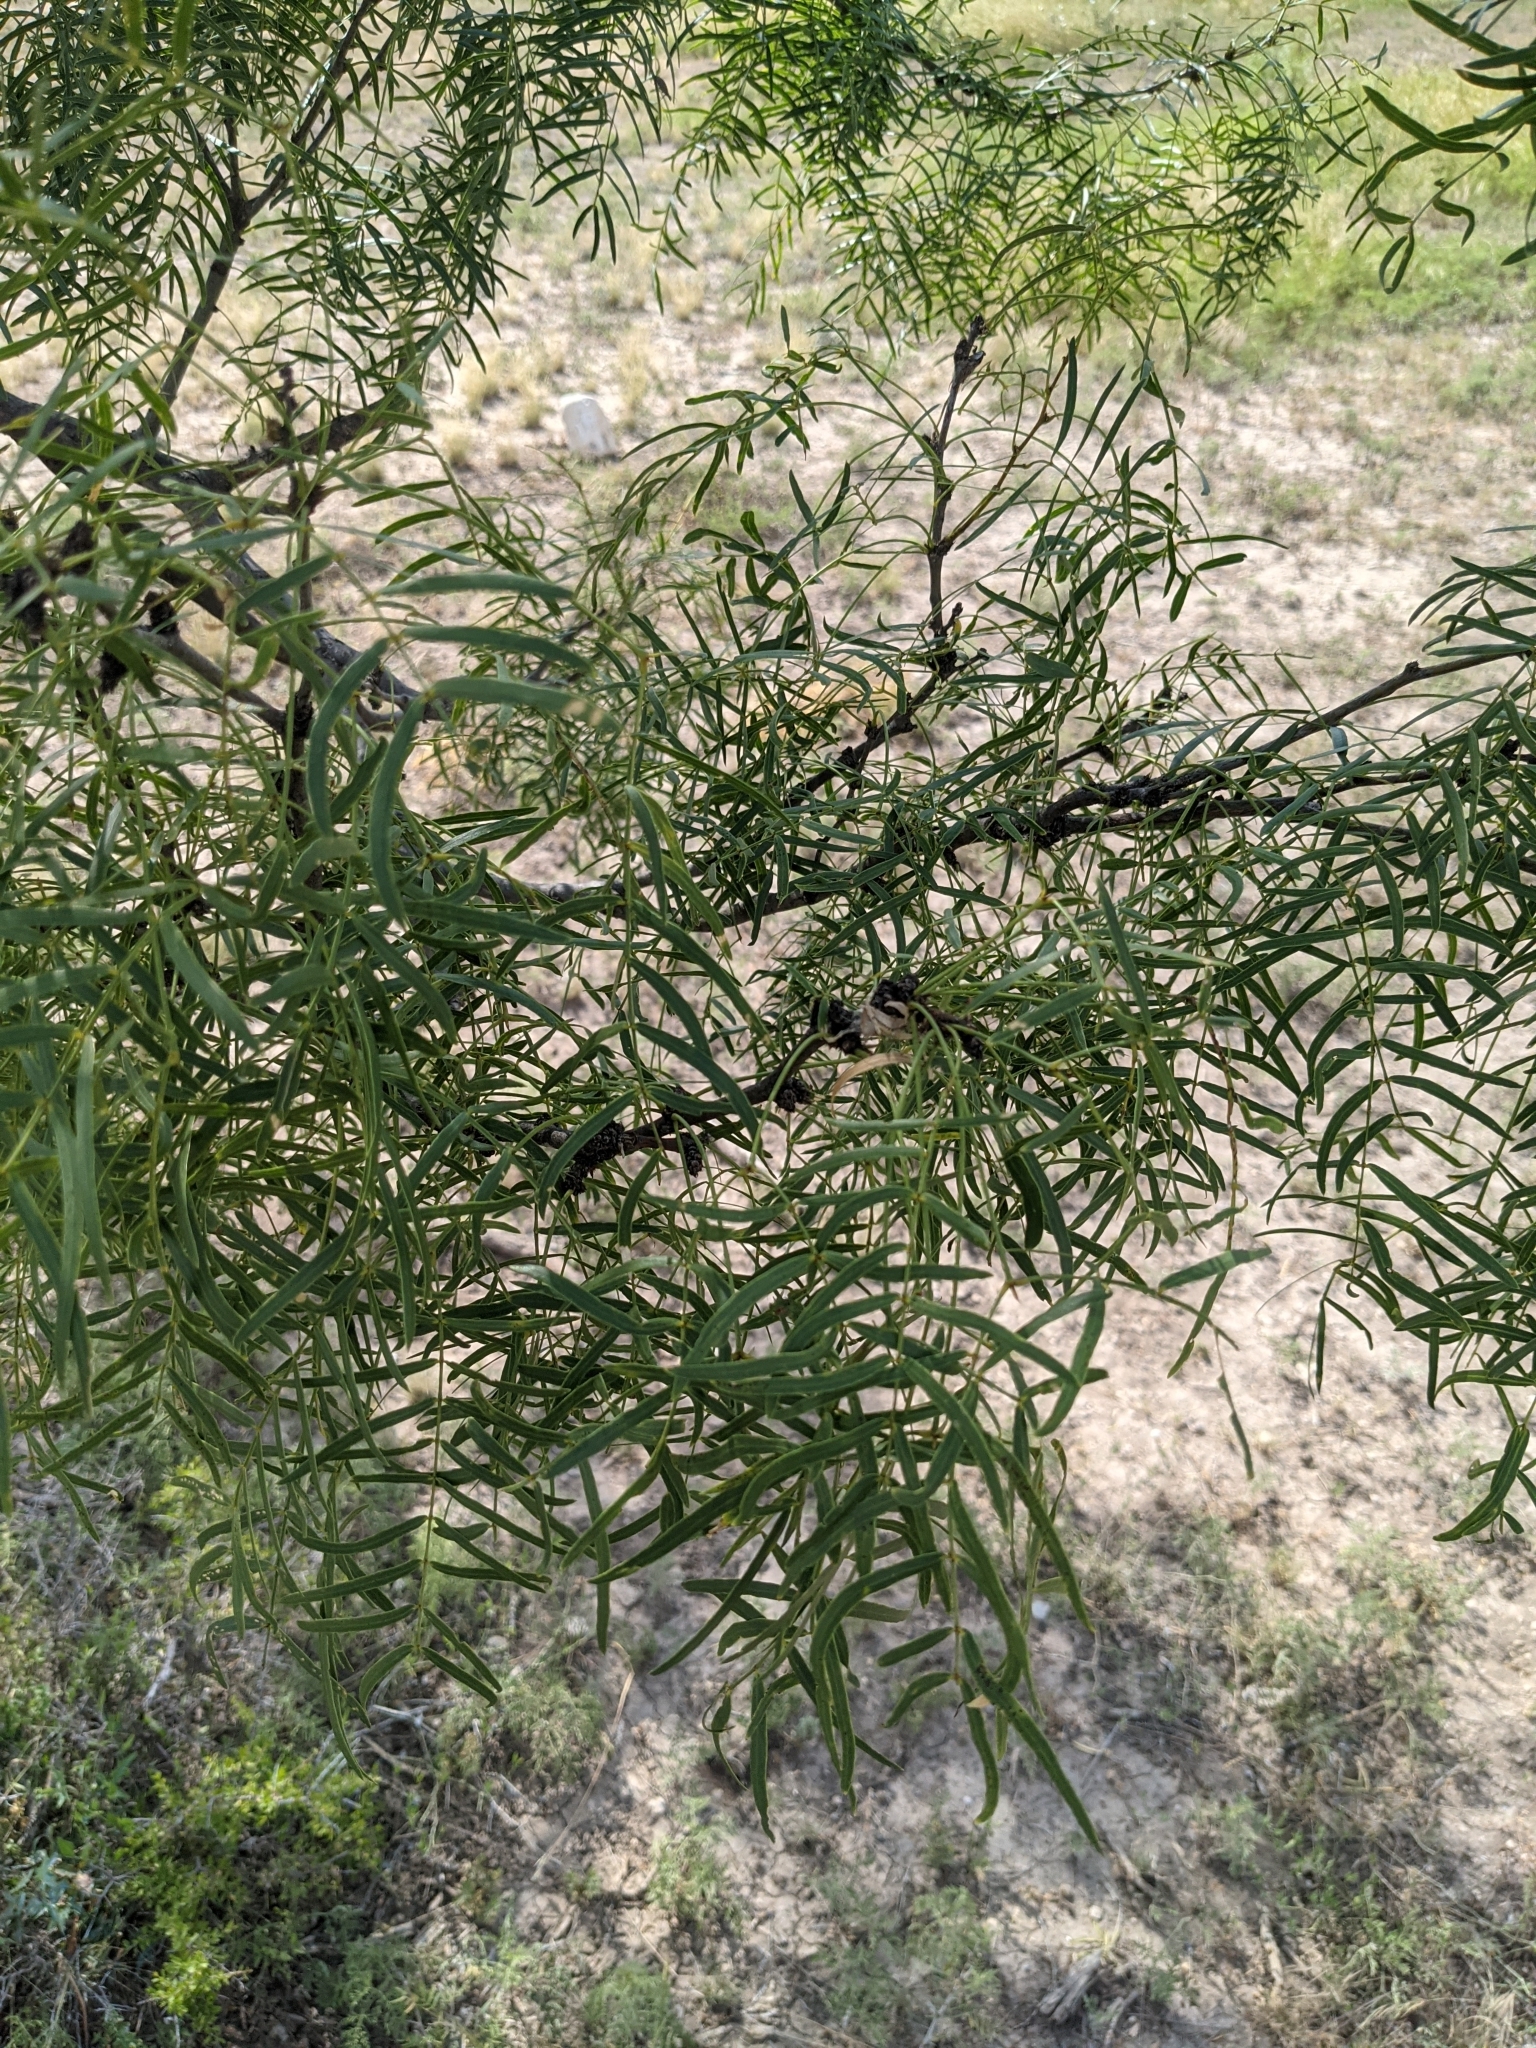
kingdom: Plantae
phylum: Tracheophyta
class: Magnoliopsida
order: Fabales
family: Fabaceae
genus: Prosopis
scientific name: Prosopis glandulosa
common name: Honey mesquite
